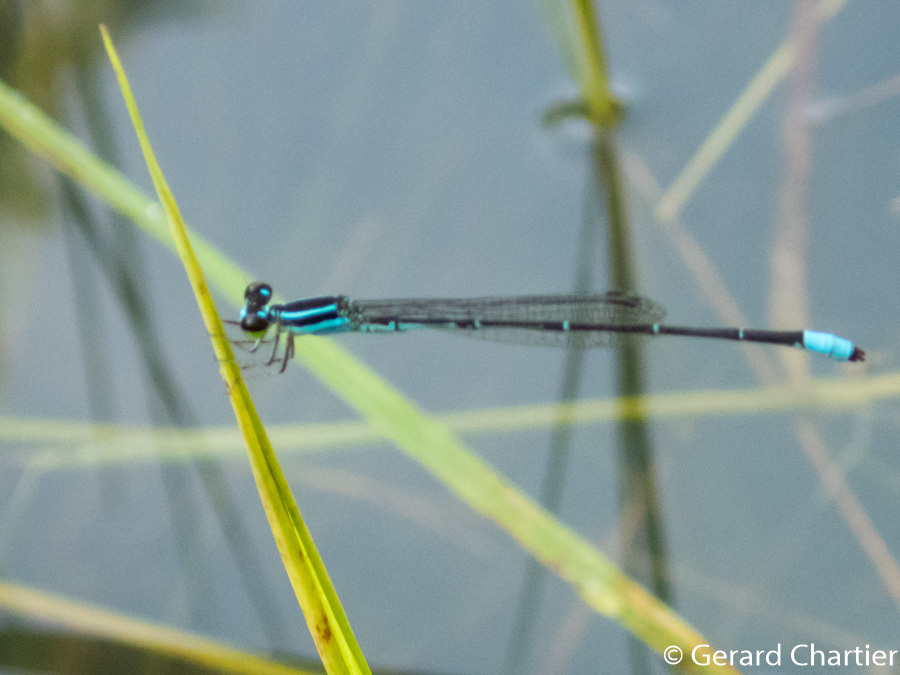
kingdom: Animalia
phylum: Arthropoda
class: Insecta
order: Odonata
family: Coenagrionidae
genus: Argiocnemis
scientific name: Argiocnemis rubescens
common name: Red-tipped shadefly
